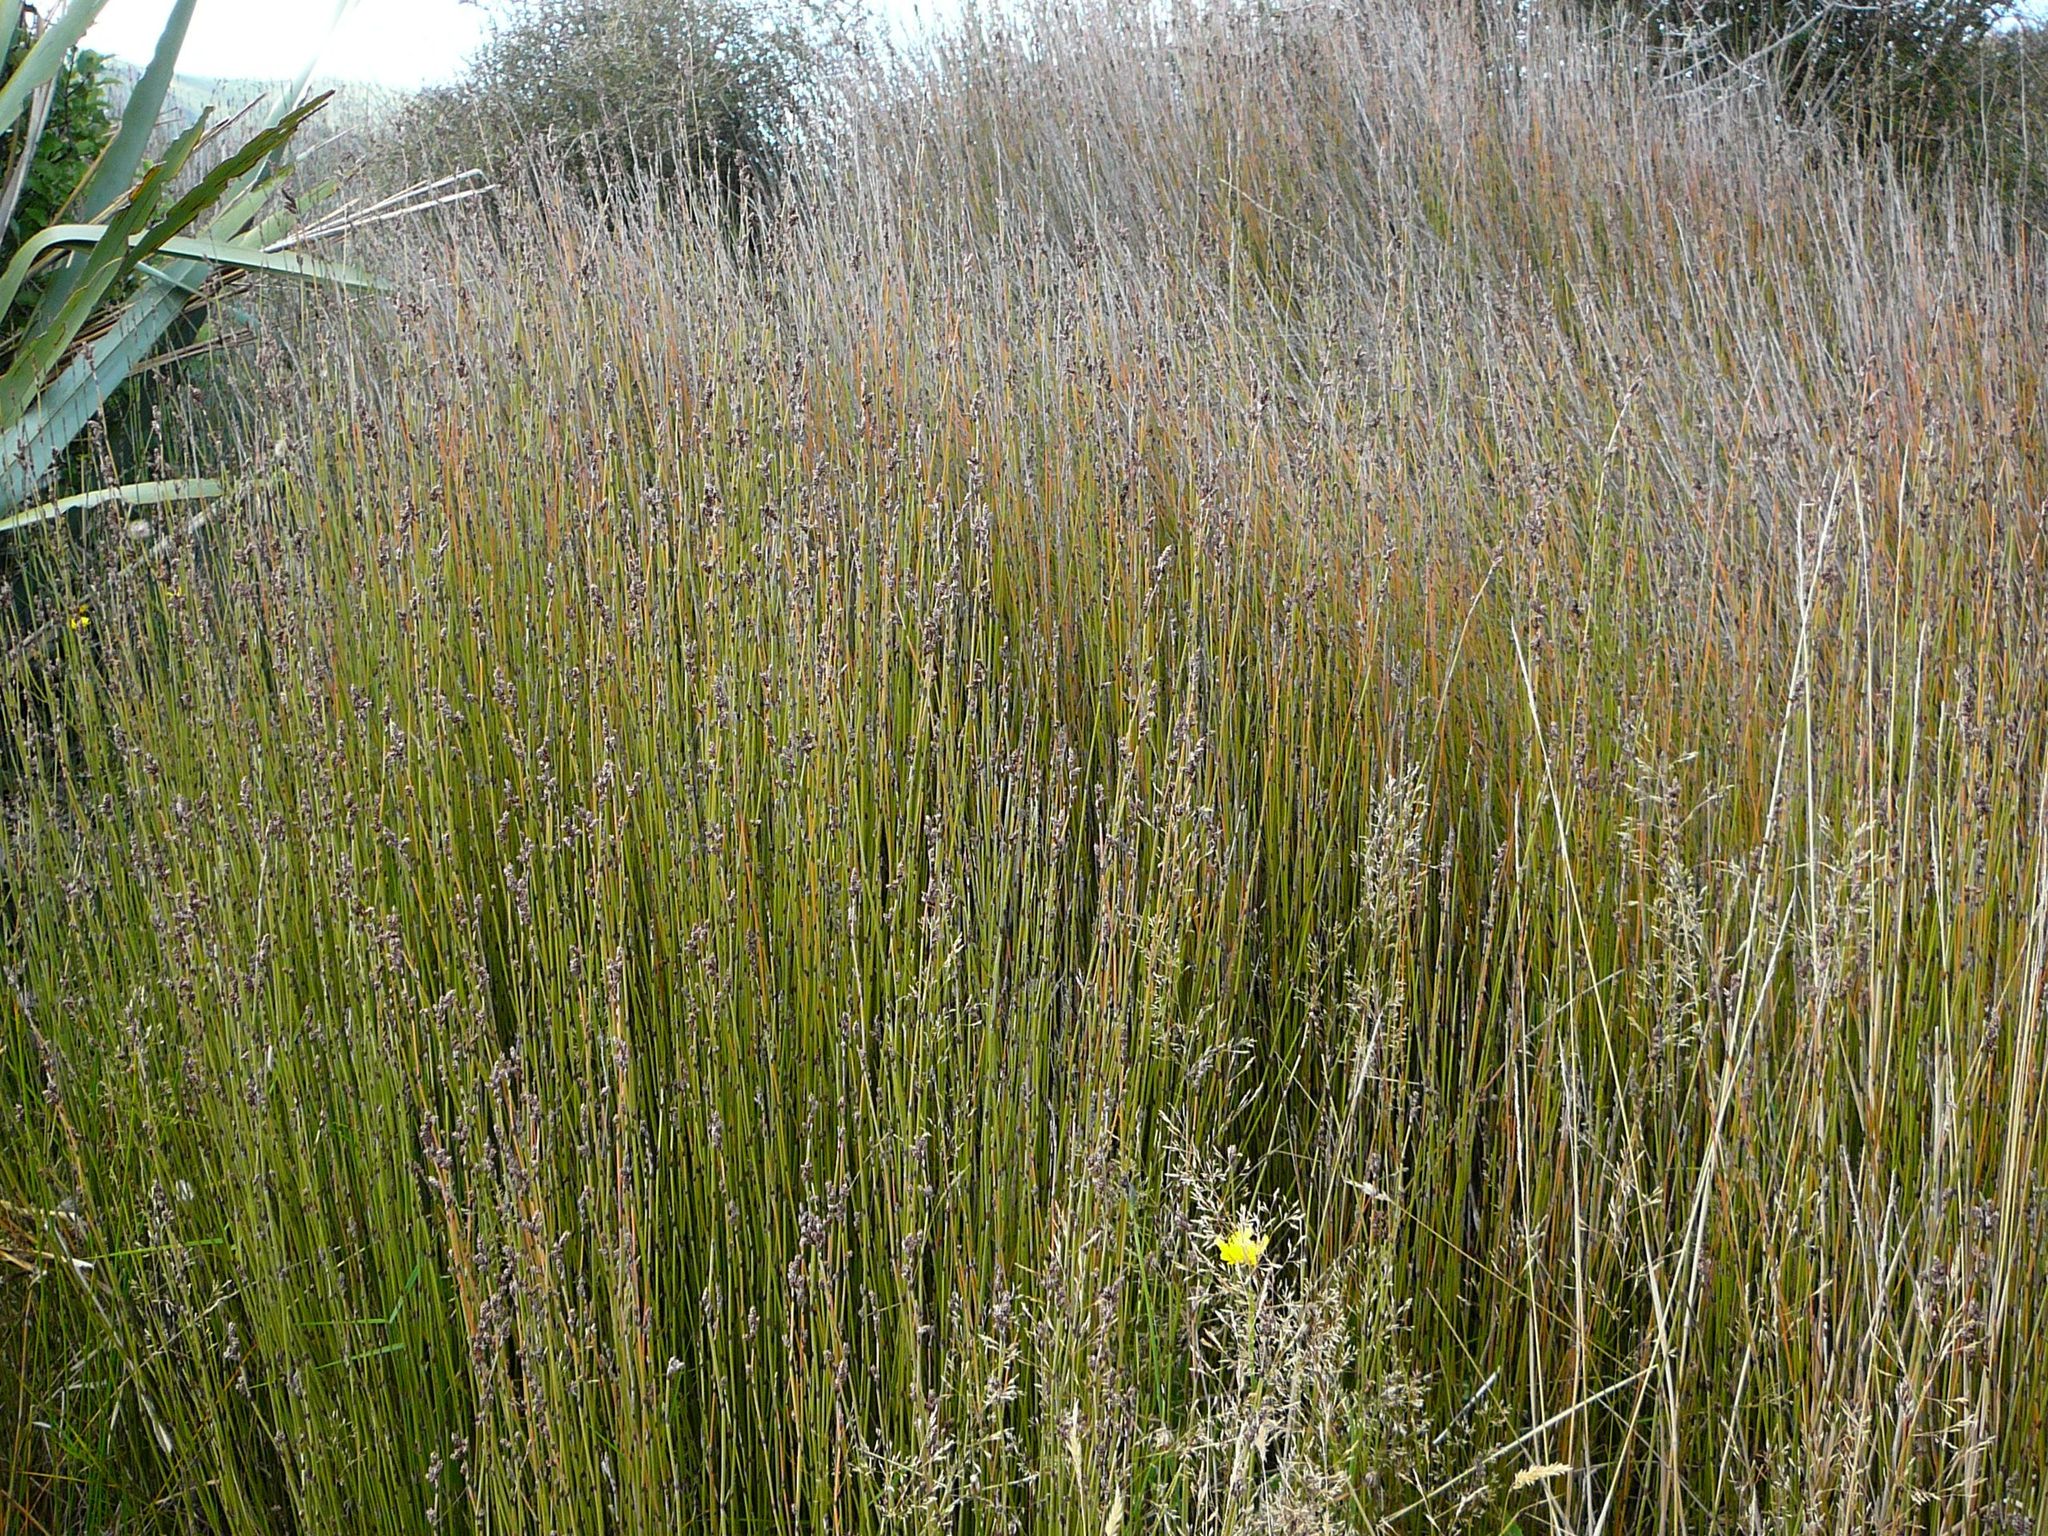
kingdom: Plantae
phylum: Tracheophyta
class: Liliopsida
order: Poales
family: Restionaceae
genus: Apodasmia
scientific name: Apodasmia similis
